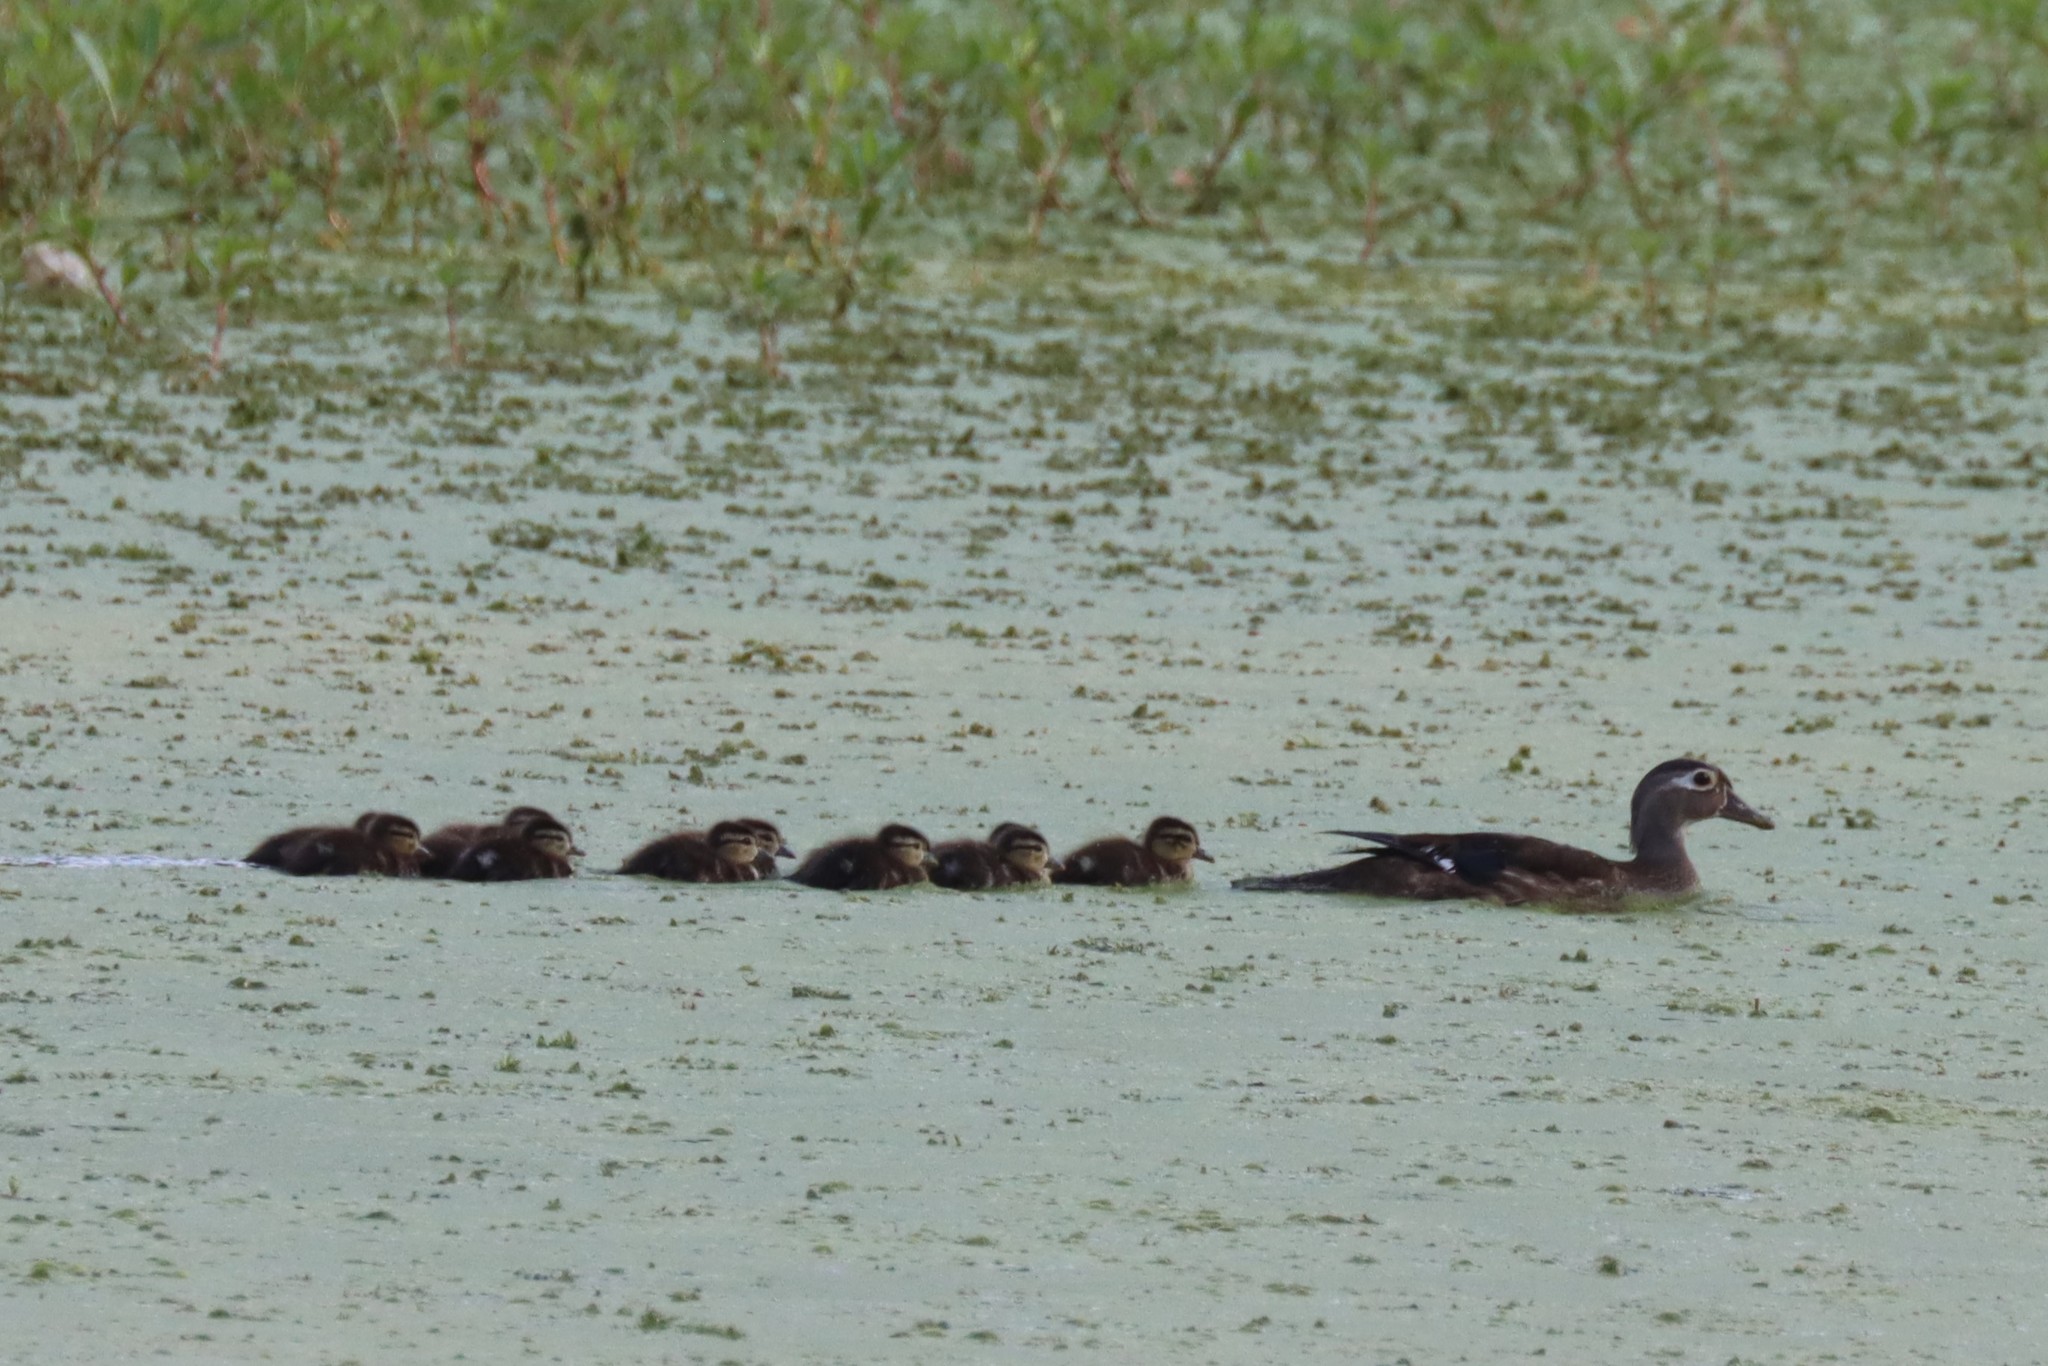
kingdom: Animalia
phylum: Chordata
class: Aves
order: Anseriformes
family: Anatidae
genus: Aix
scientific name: Aix sponsa
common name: Wood duck
